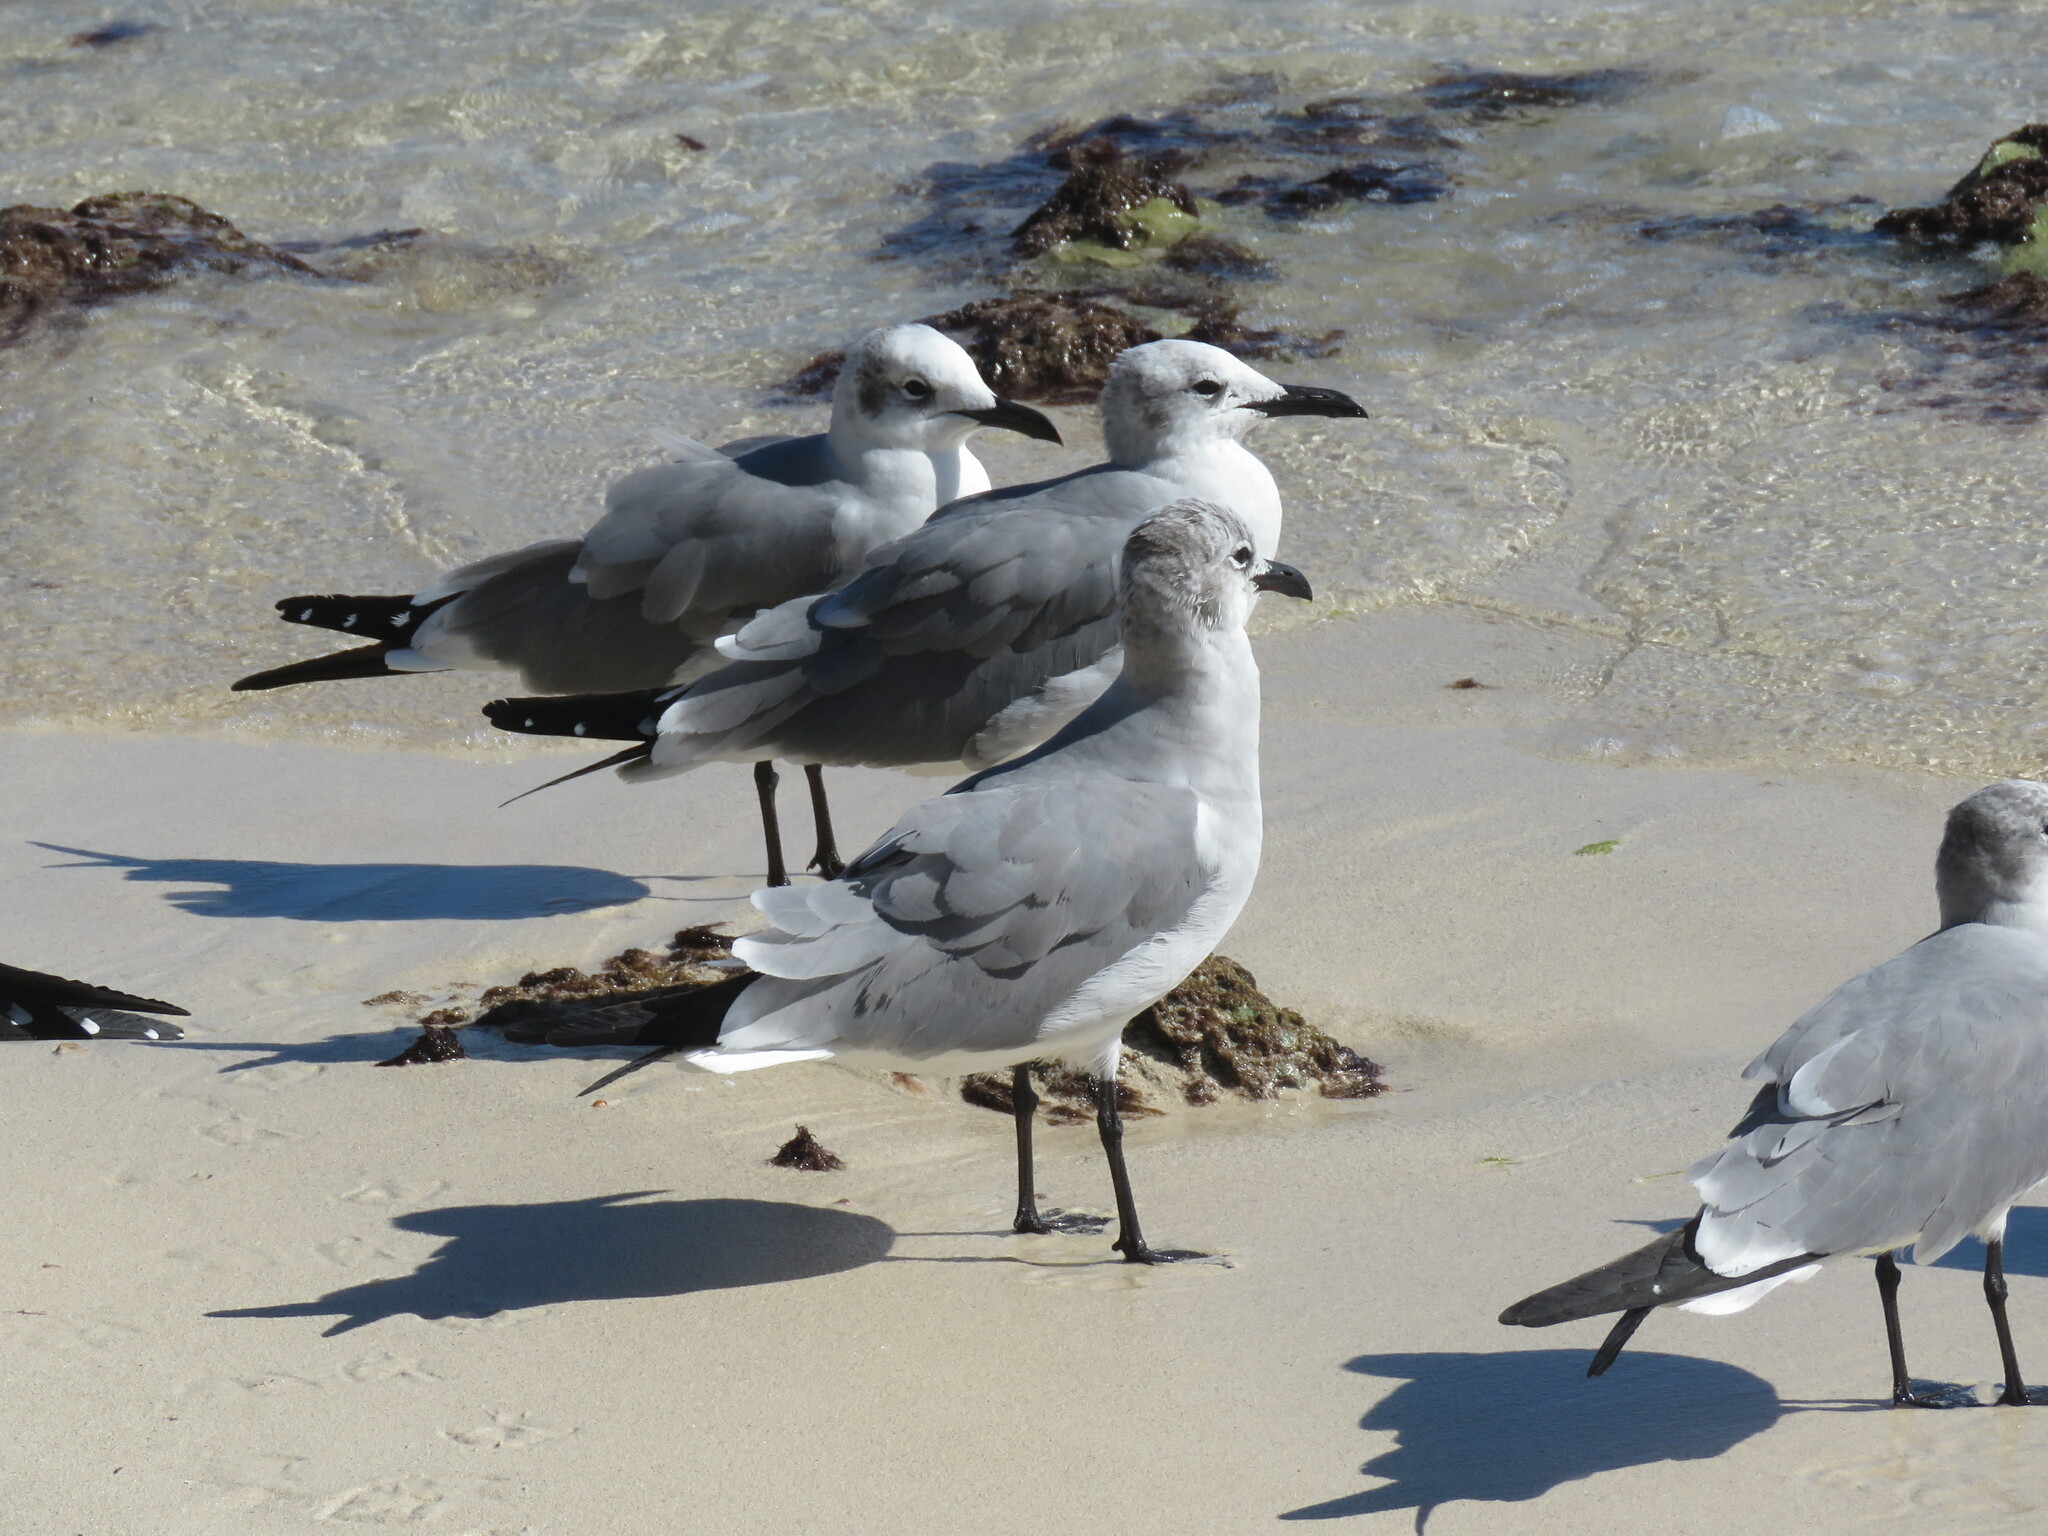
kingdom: Animalia
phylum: Chordata
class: Aves
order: Charadriiformes
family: Laridae
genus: Leucophaeus
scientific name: Leucophaeus atricilla
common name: Laughing gull
